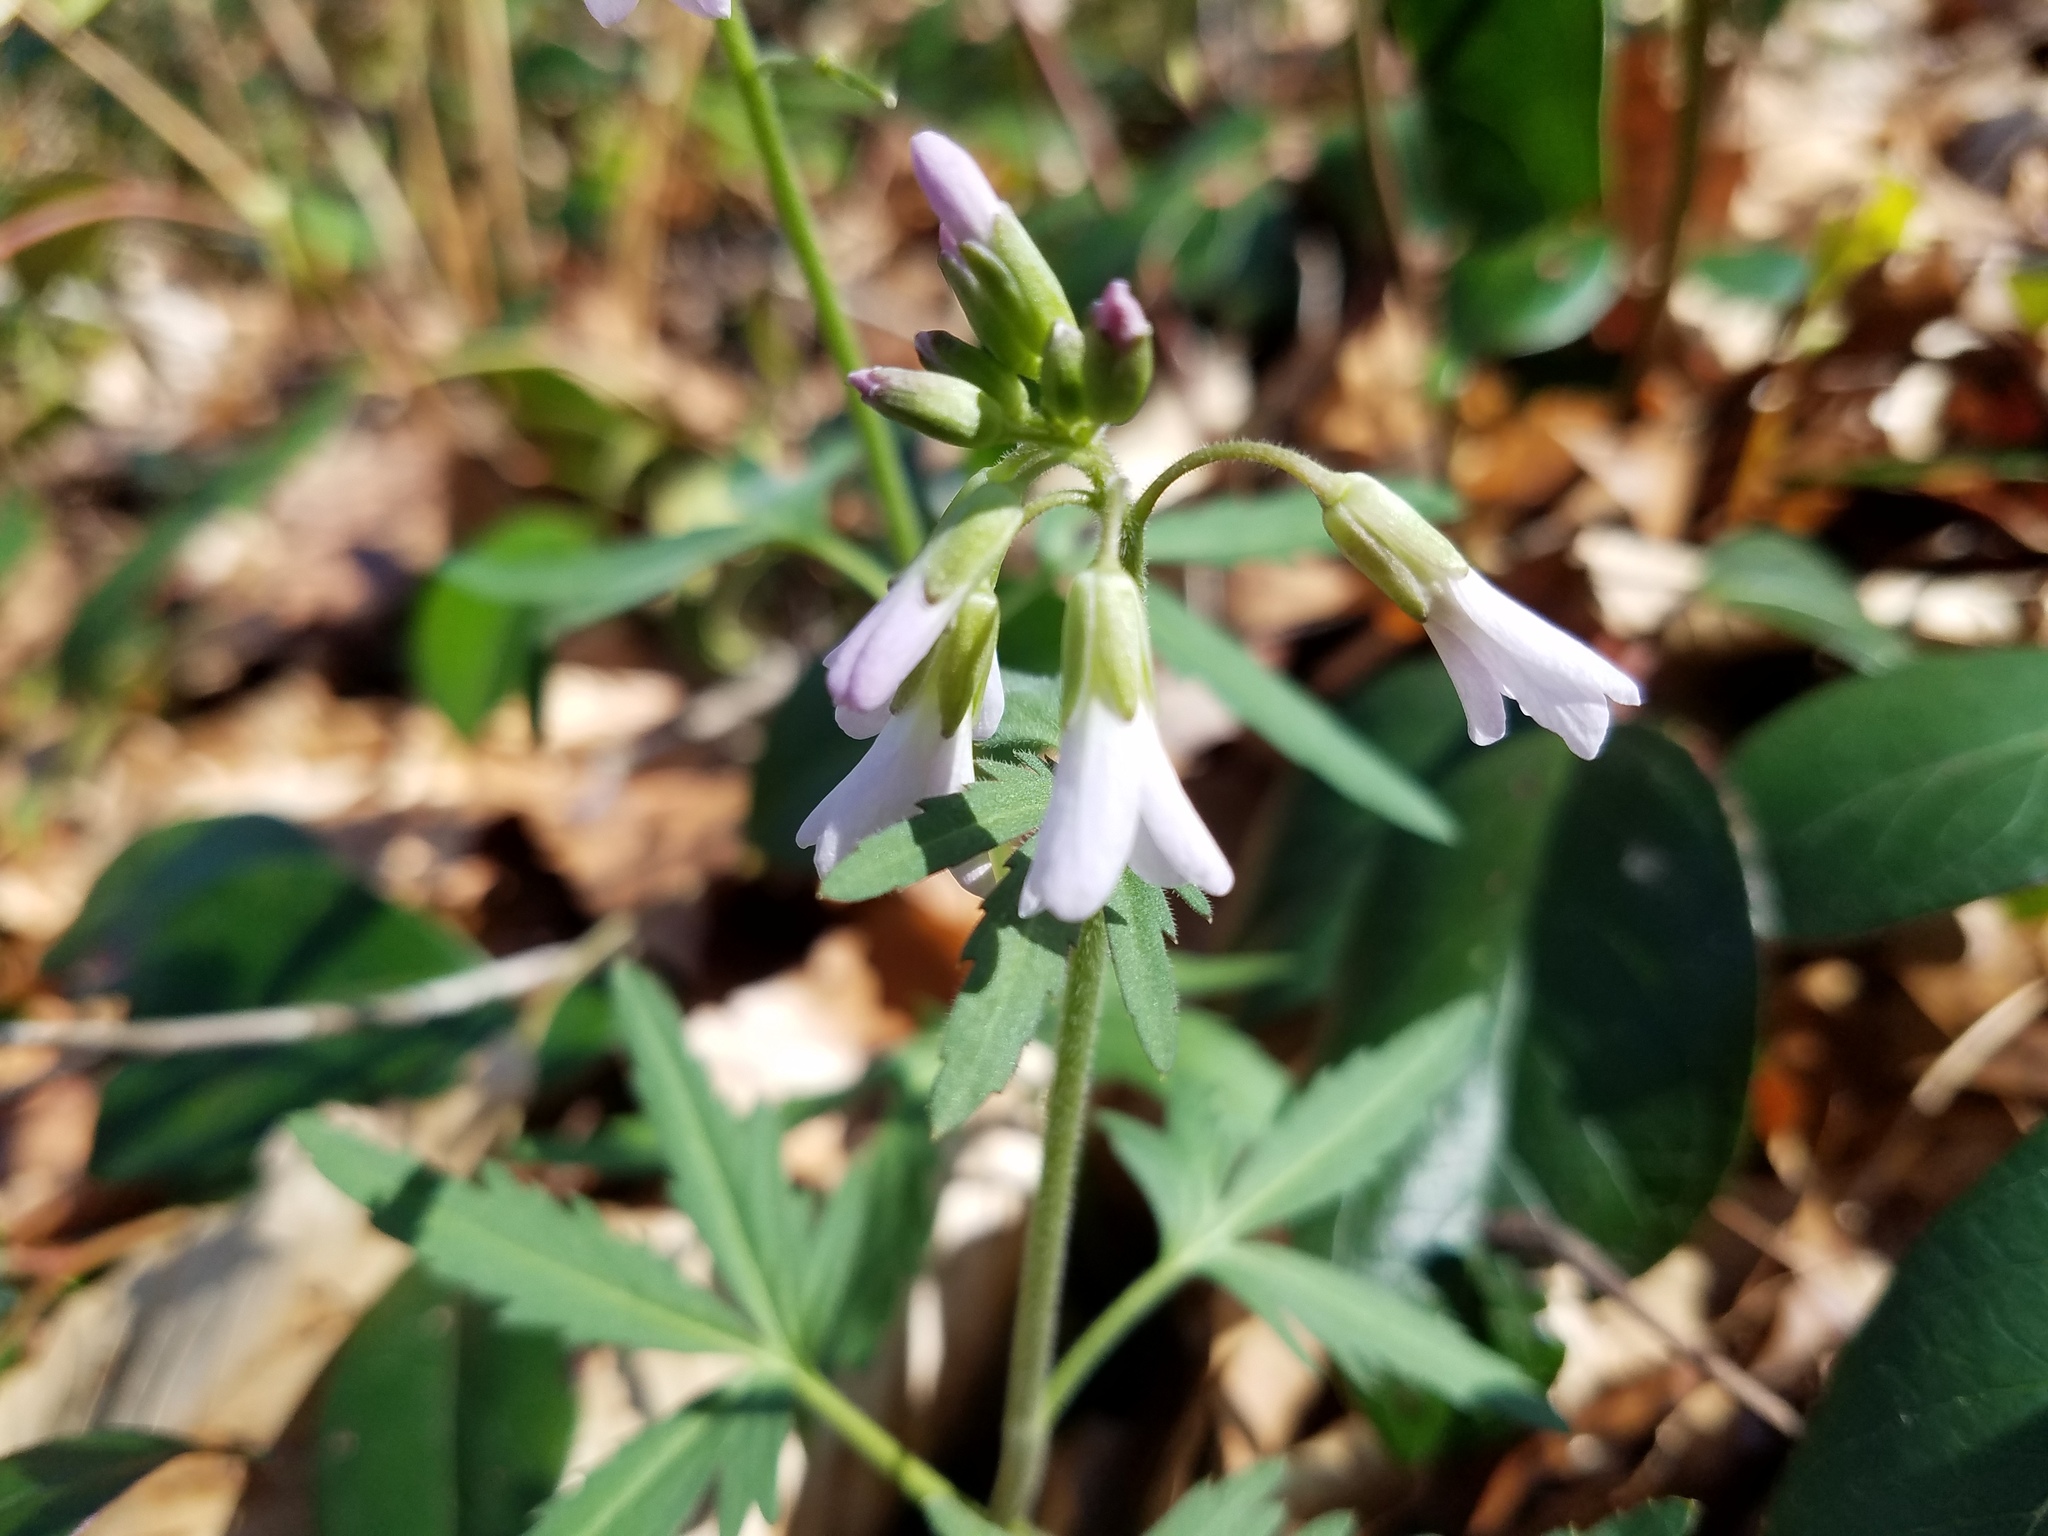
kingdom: Plantae
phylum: Tracheophyta
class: Magnoliopsida
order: Brassicales
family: Brassicaceae
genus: Cardamine
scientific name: Cardamine concatenata
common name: Cut-leaf toothcup
